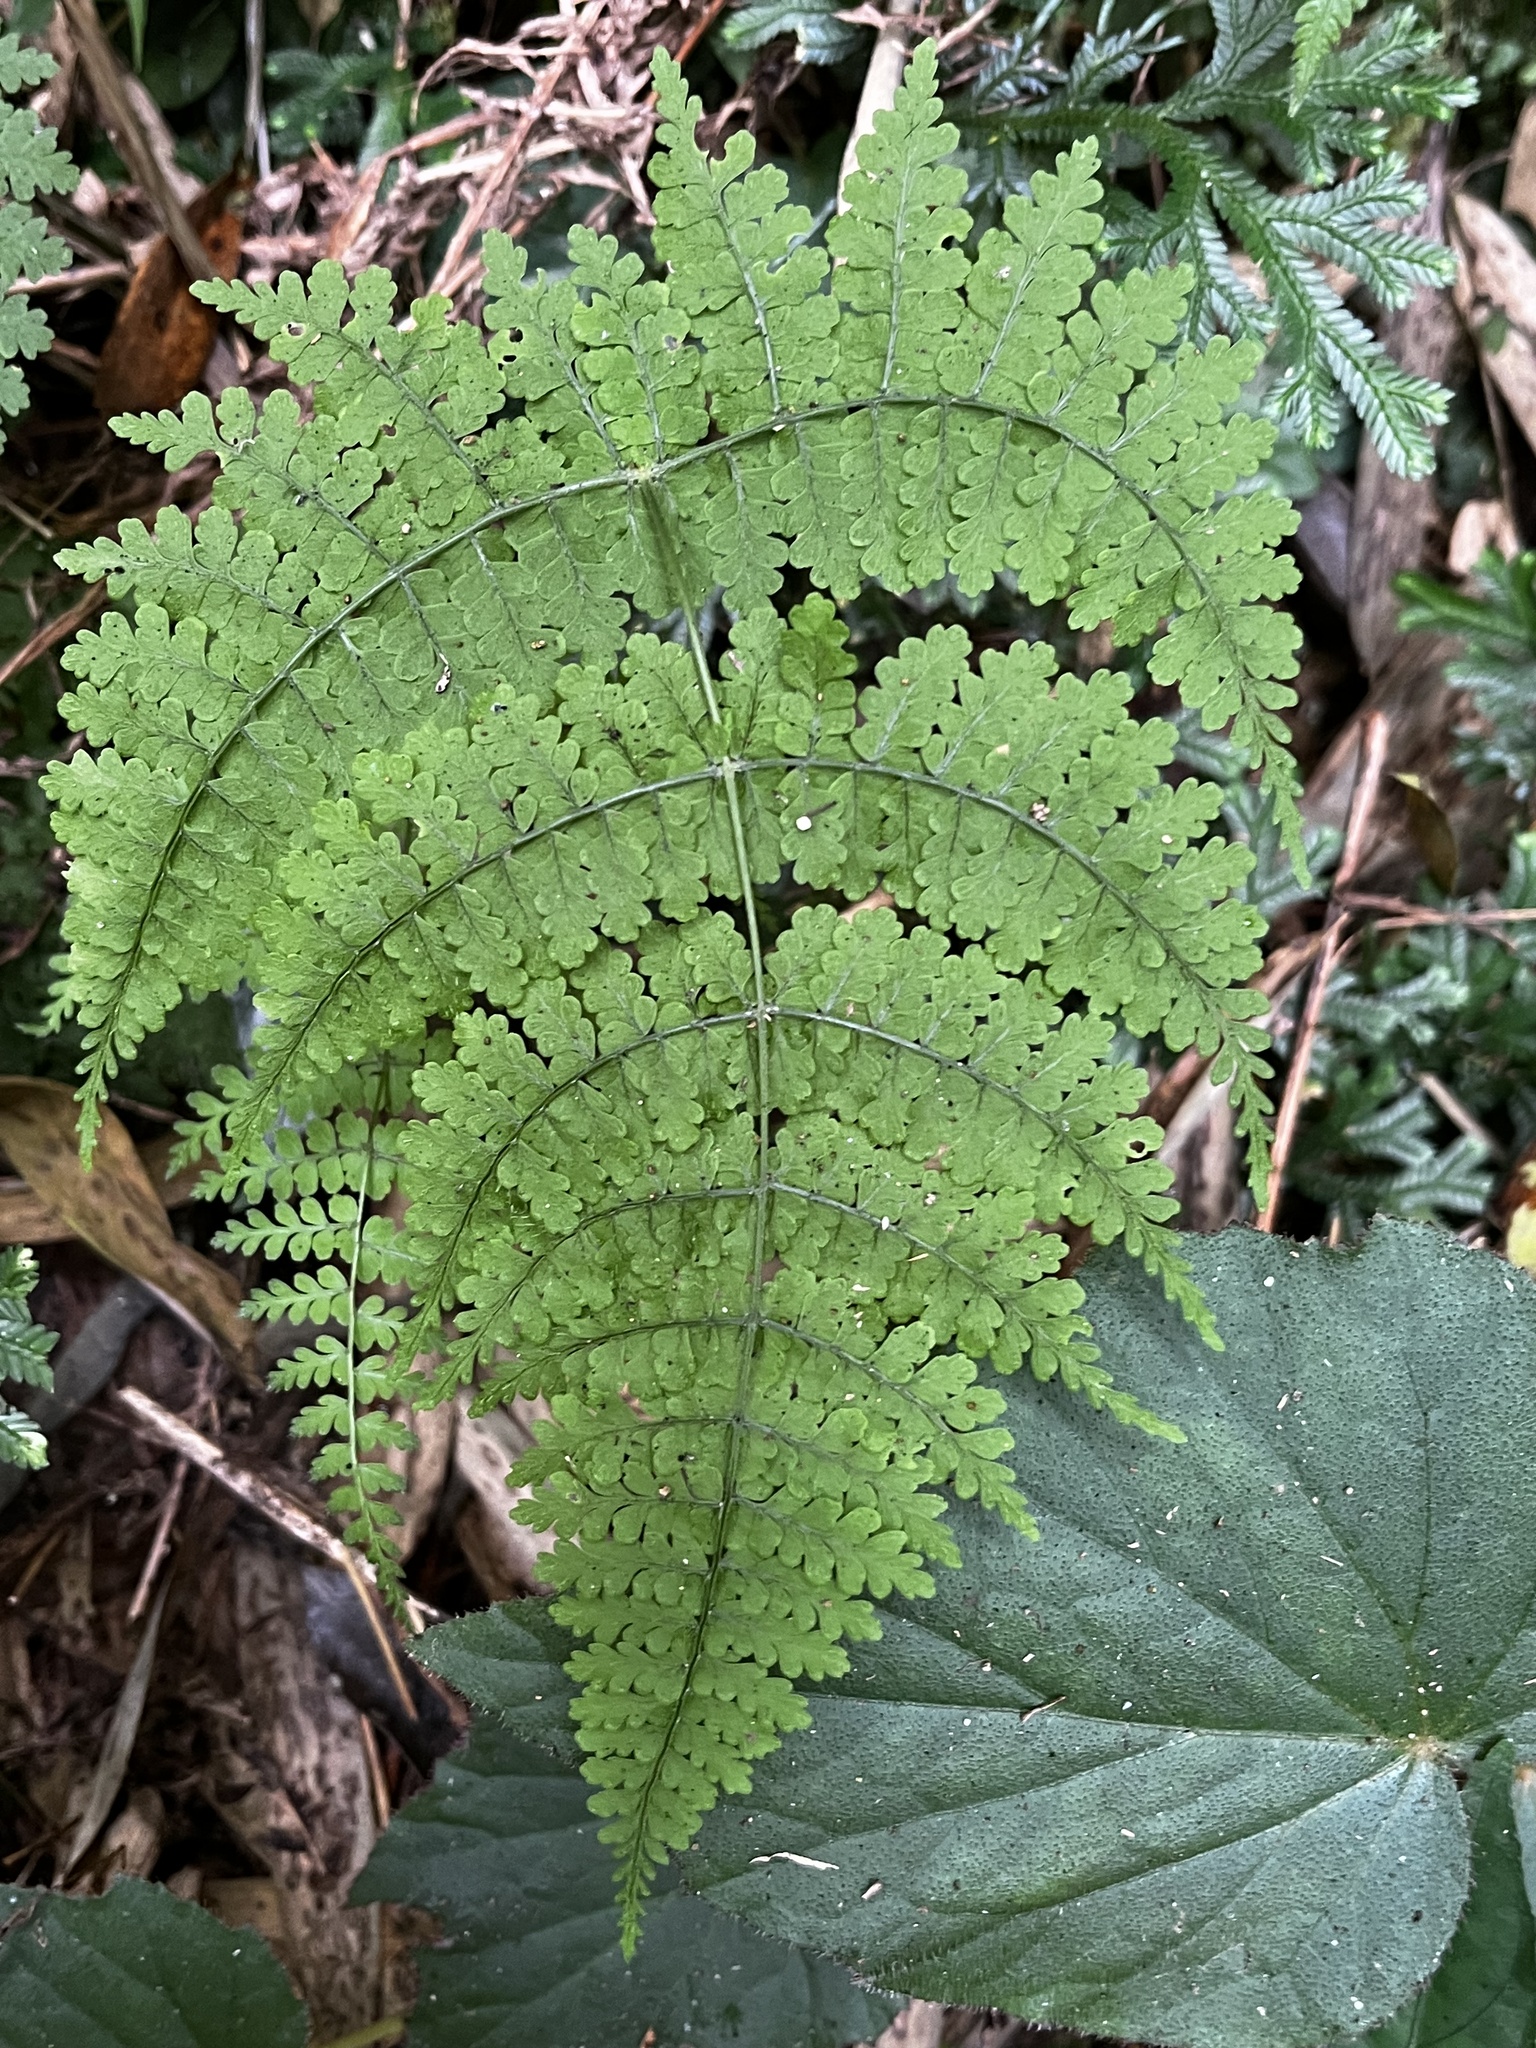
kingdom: Plantae
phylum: Tracheophyta
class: Polypodiopsida
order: Polypodiales
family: Dryopteridaceae
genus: Dryopteris
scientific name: Dryopteris paleolata
